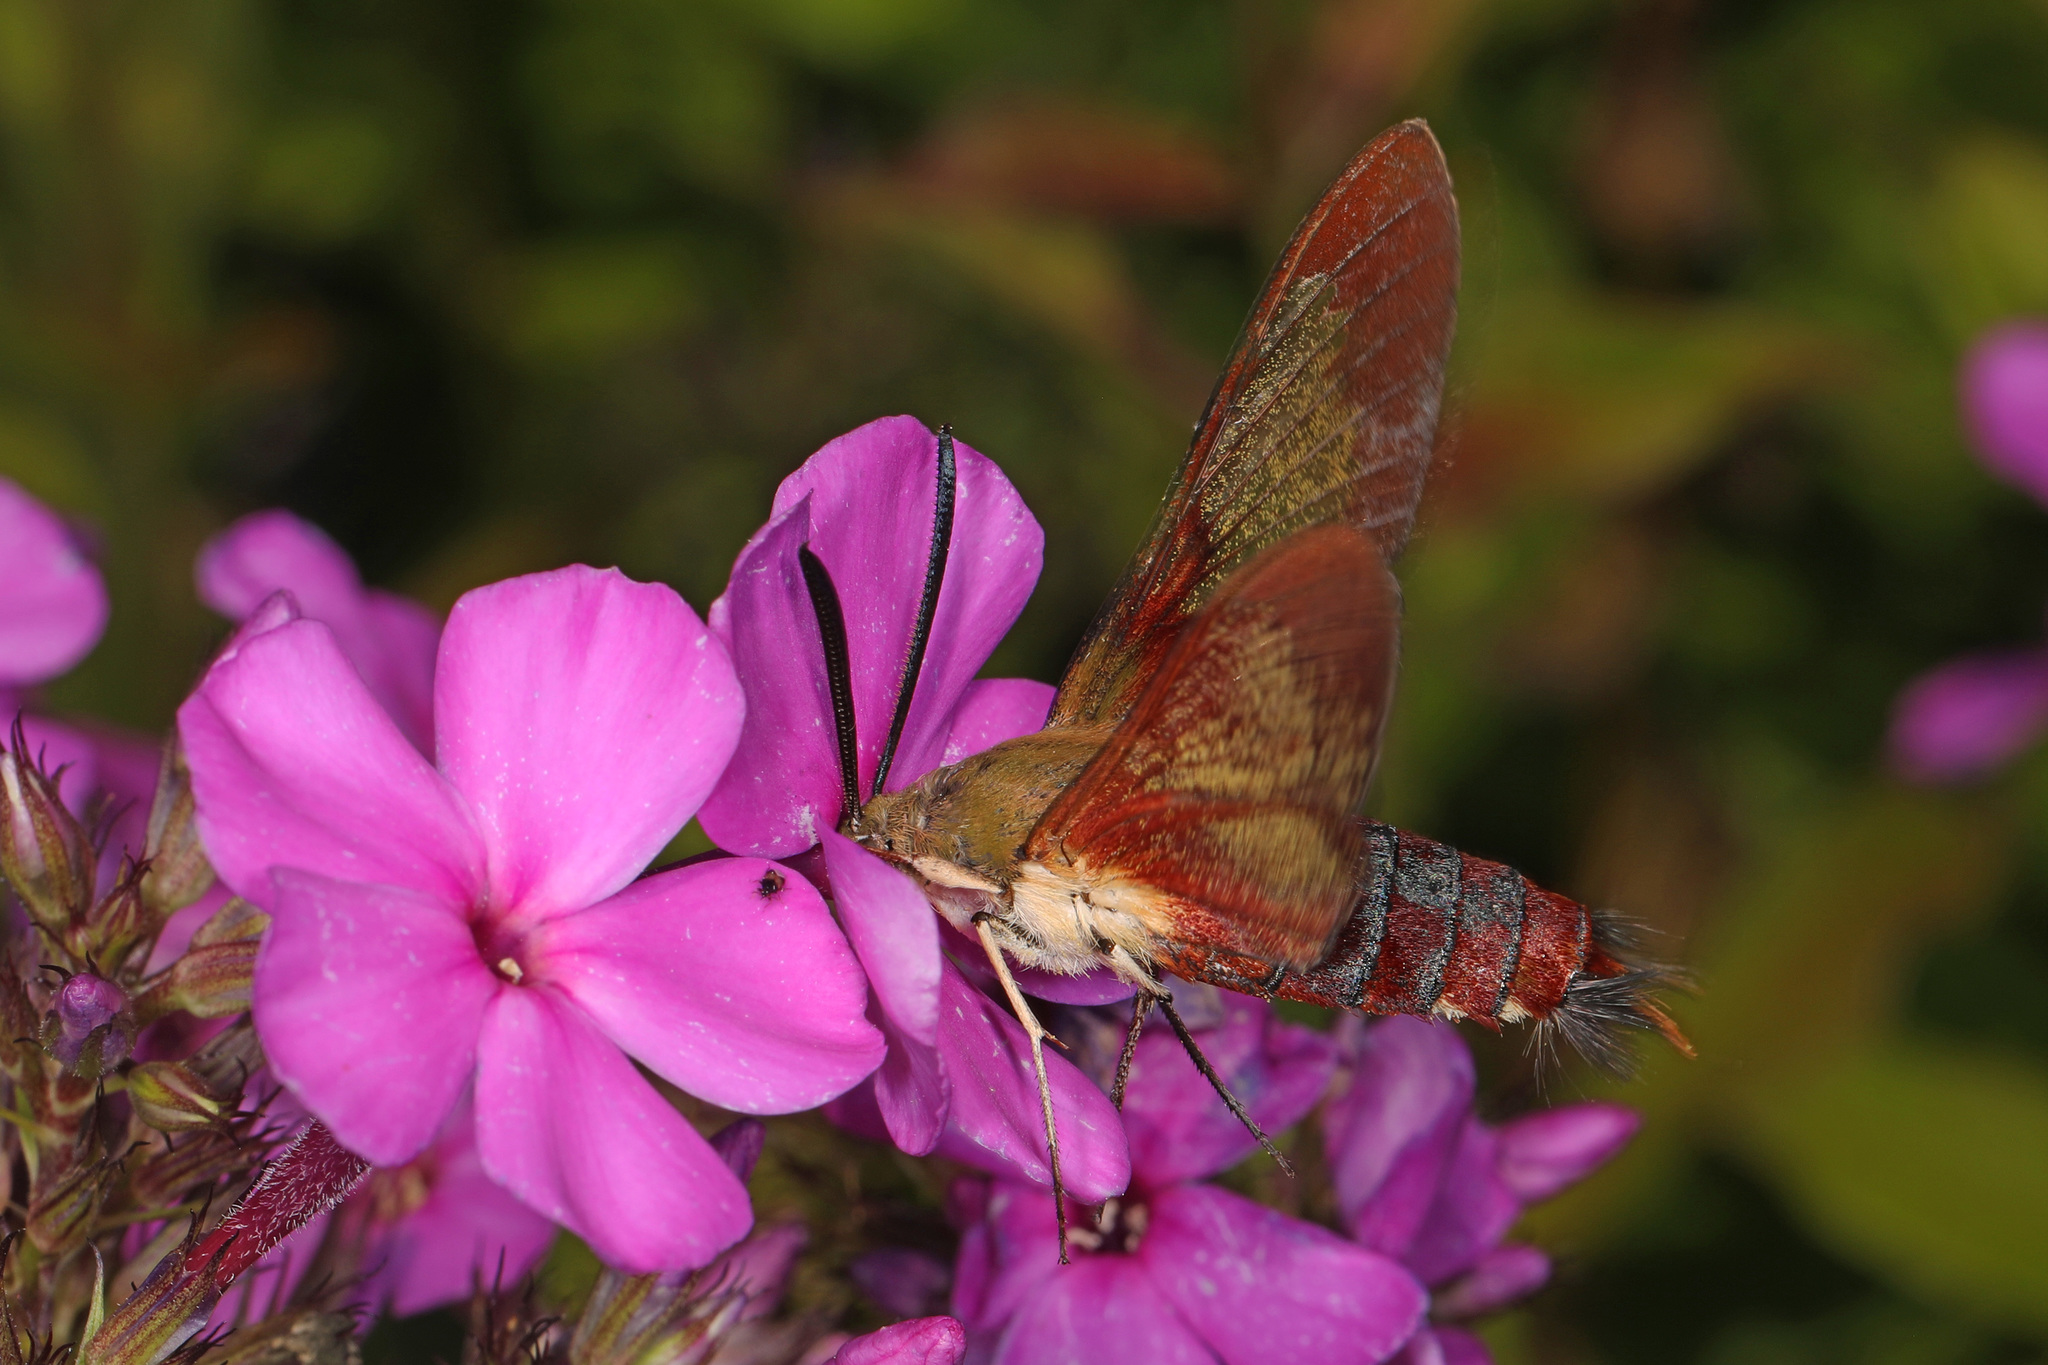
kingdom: Animalia
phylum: Arthropoda
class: Insecta
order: Lepidoptera
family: Sphingidae
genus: Hemaris
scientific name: Hemaris thysbe
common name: Common clear-wing
